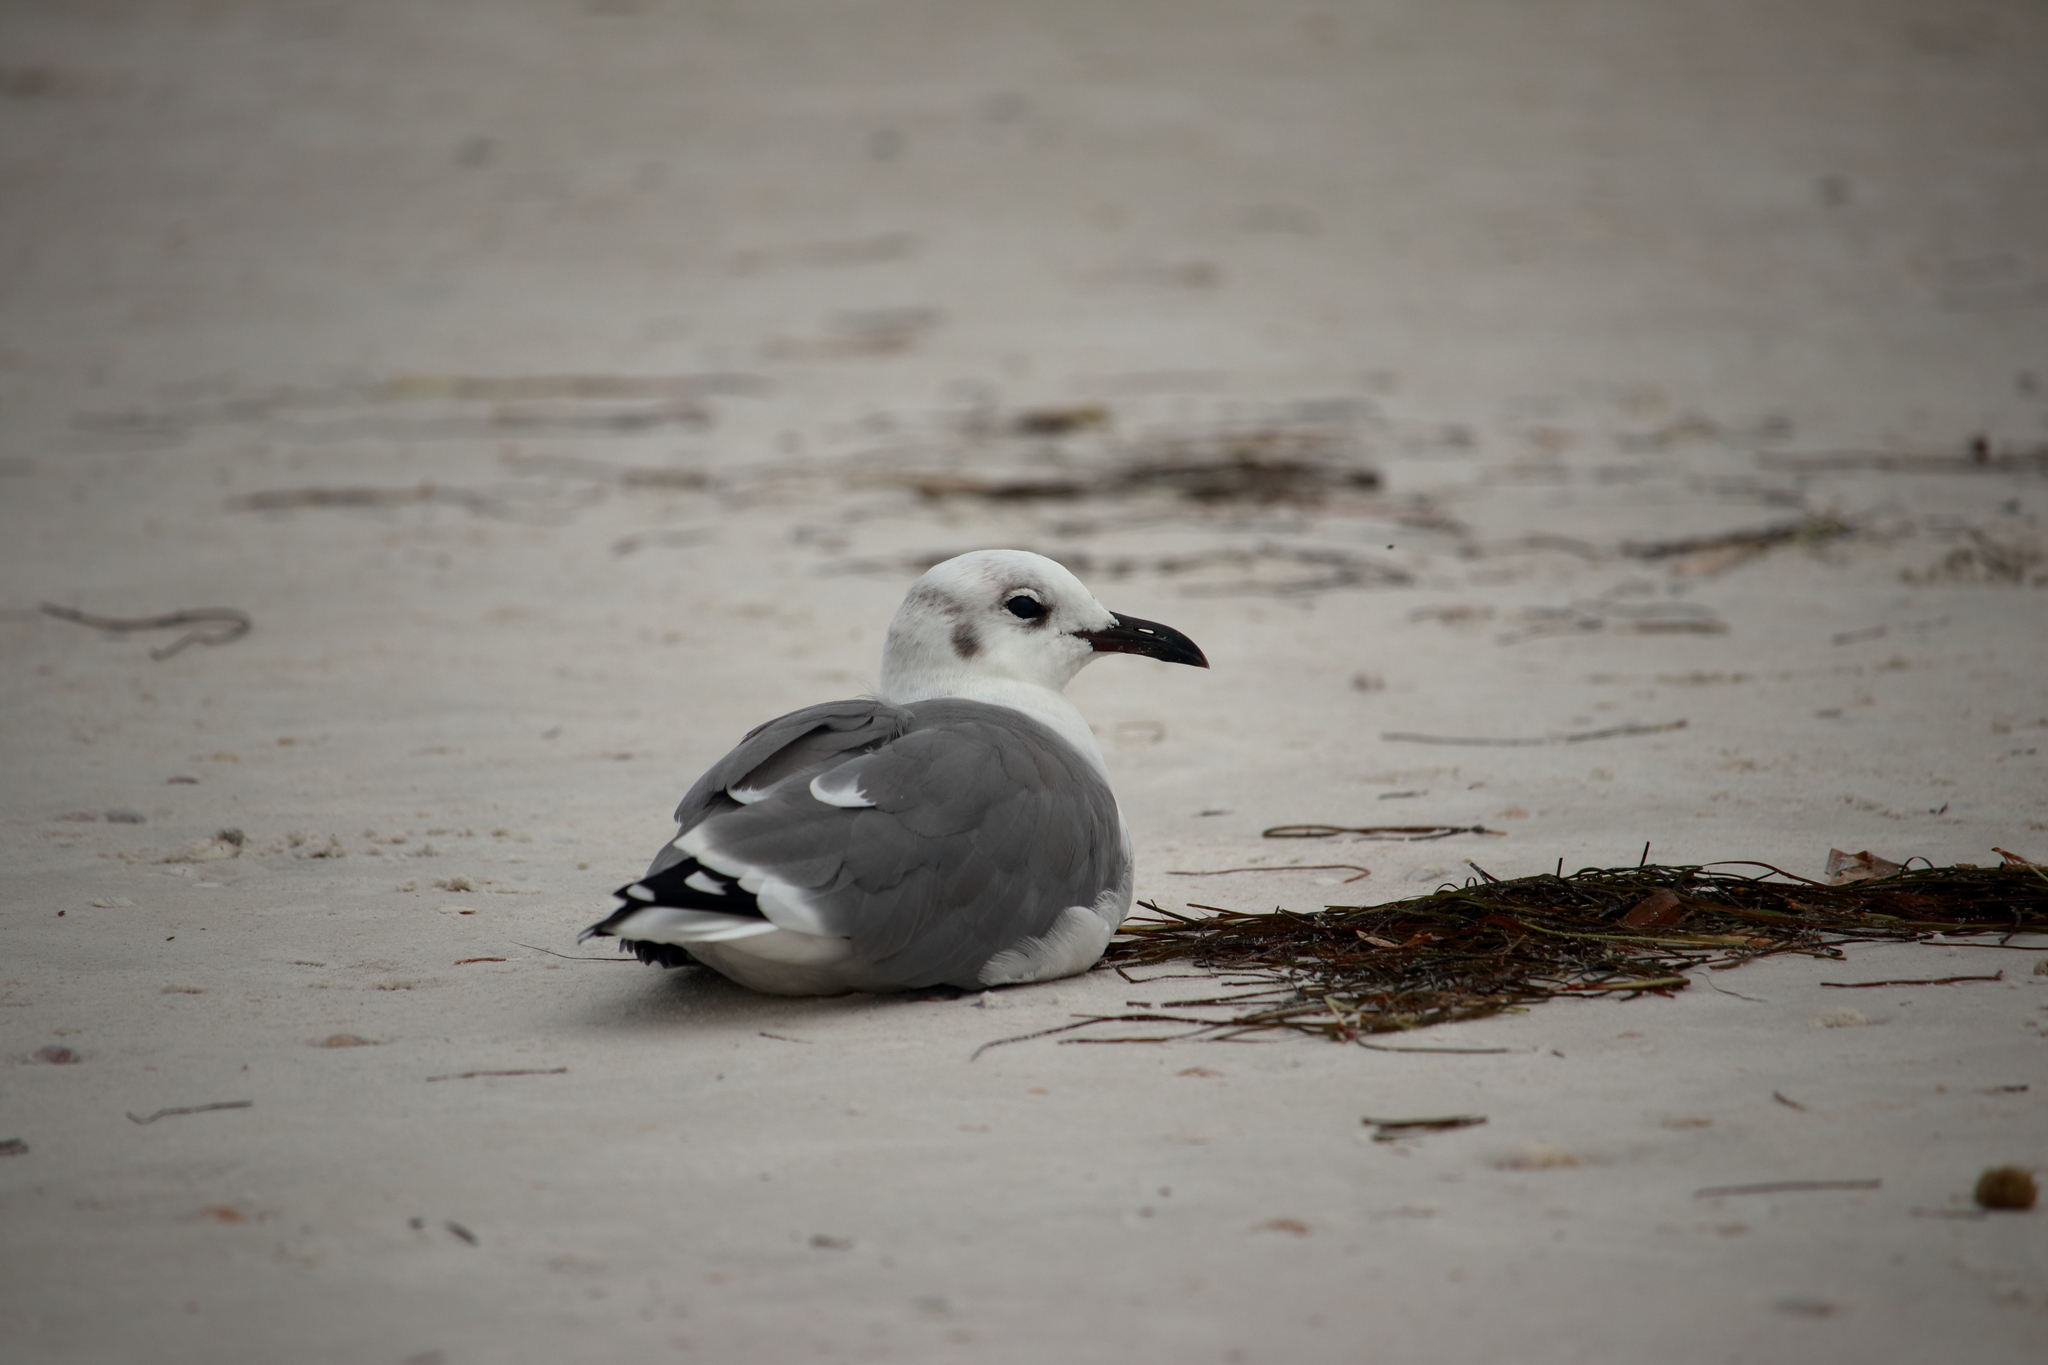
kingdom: Animalia
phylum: Chordata
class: Aves
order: Charadriiformes
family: Laridae
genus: Leucophaeus
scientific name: Leucophaeus atricilla
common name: Laughing gull
